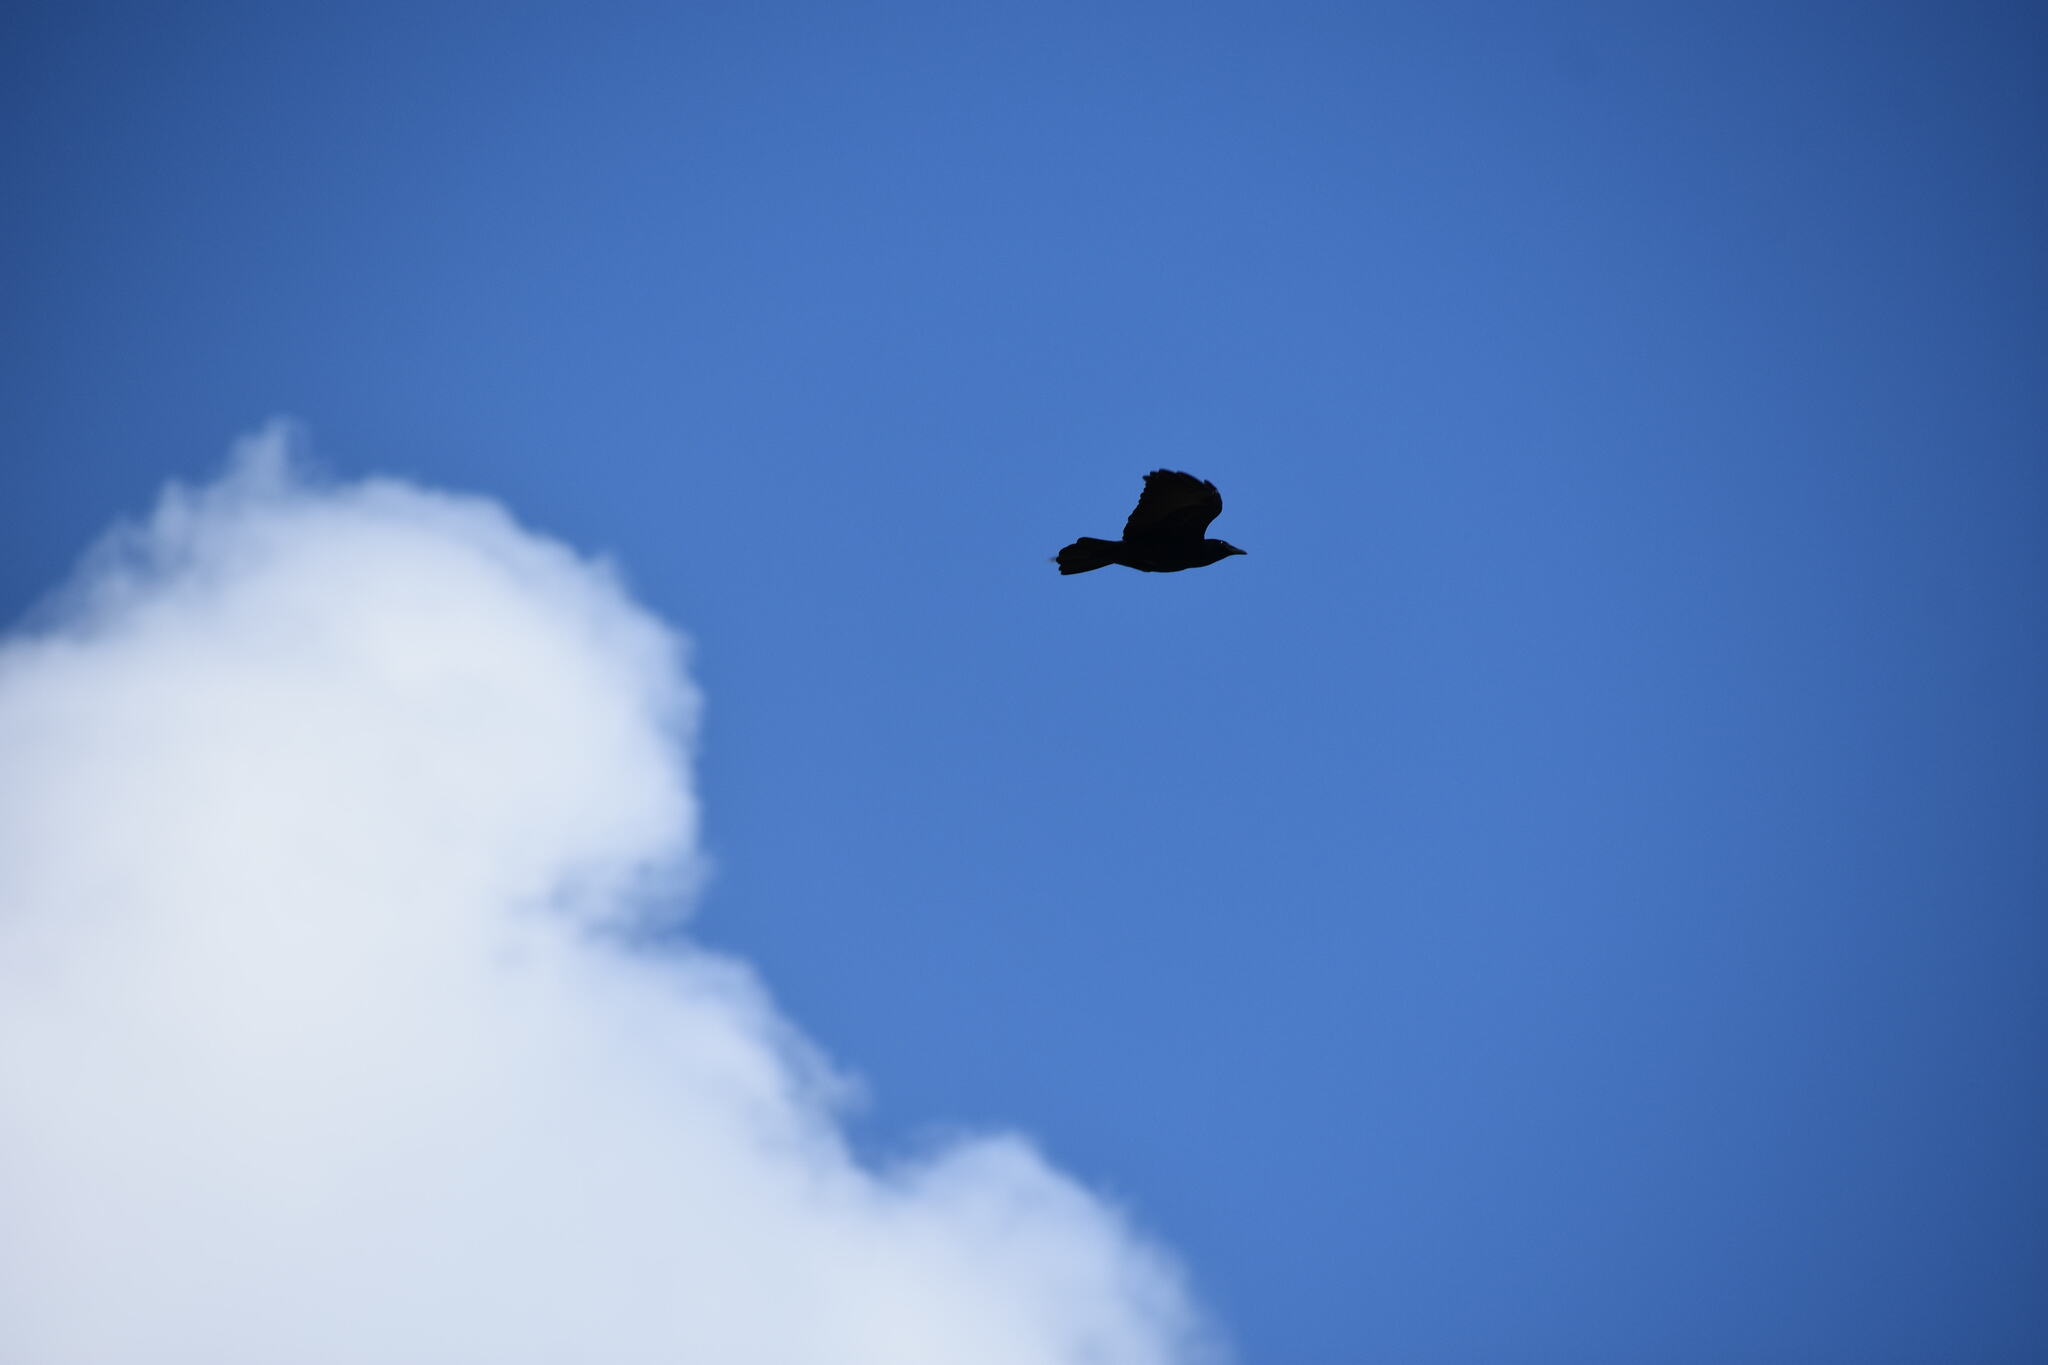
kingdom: Animalia
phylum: Chordata
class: Aves
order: Passeriformes
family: Corvidae
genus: Corvus
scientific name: Corvus ossifragus
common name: Fish crow
